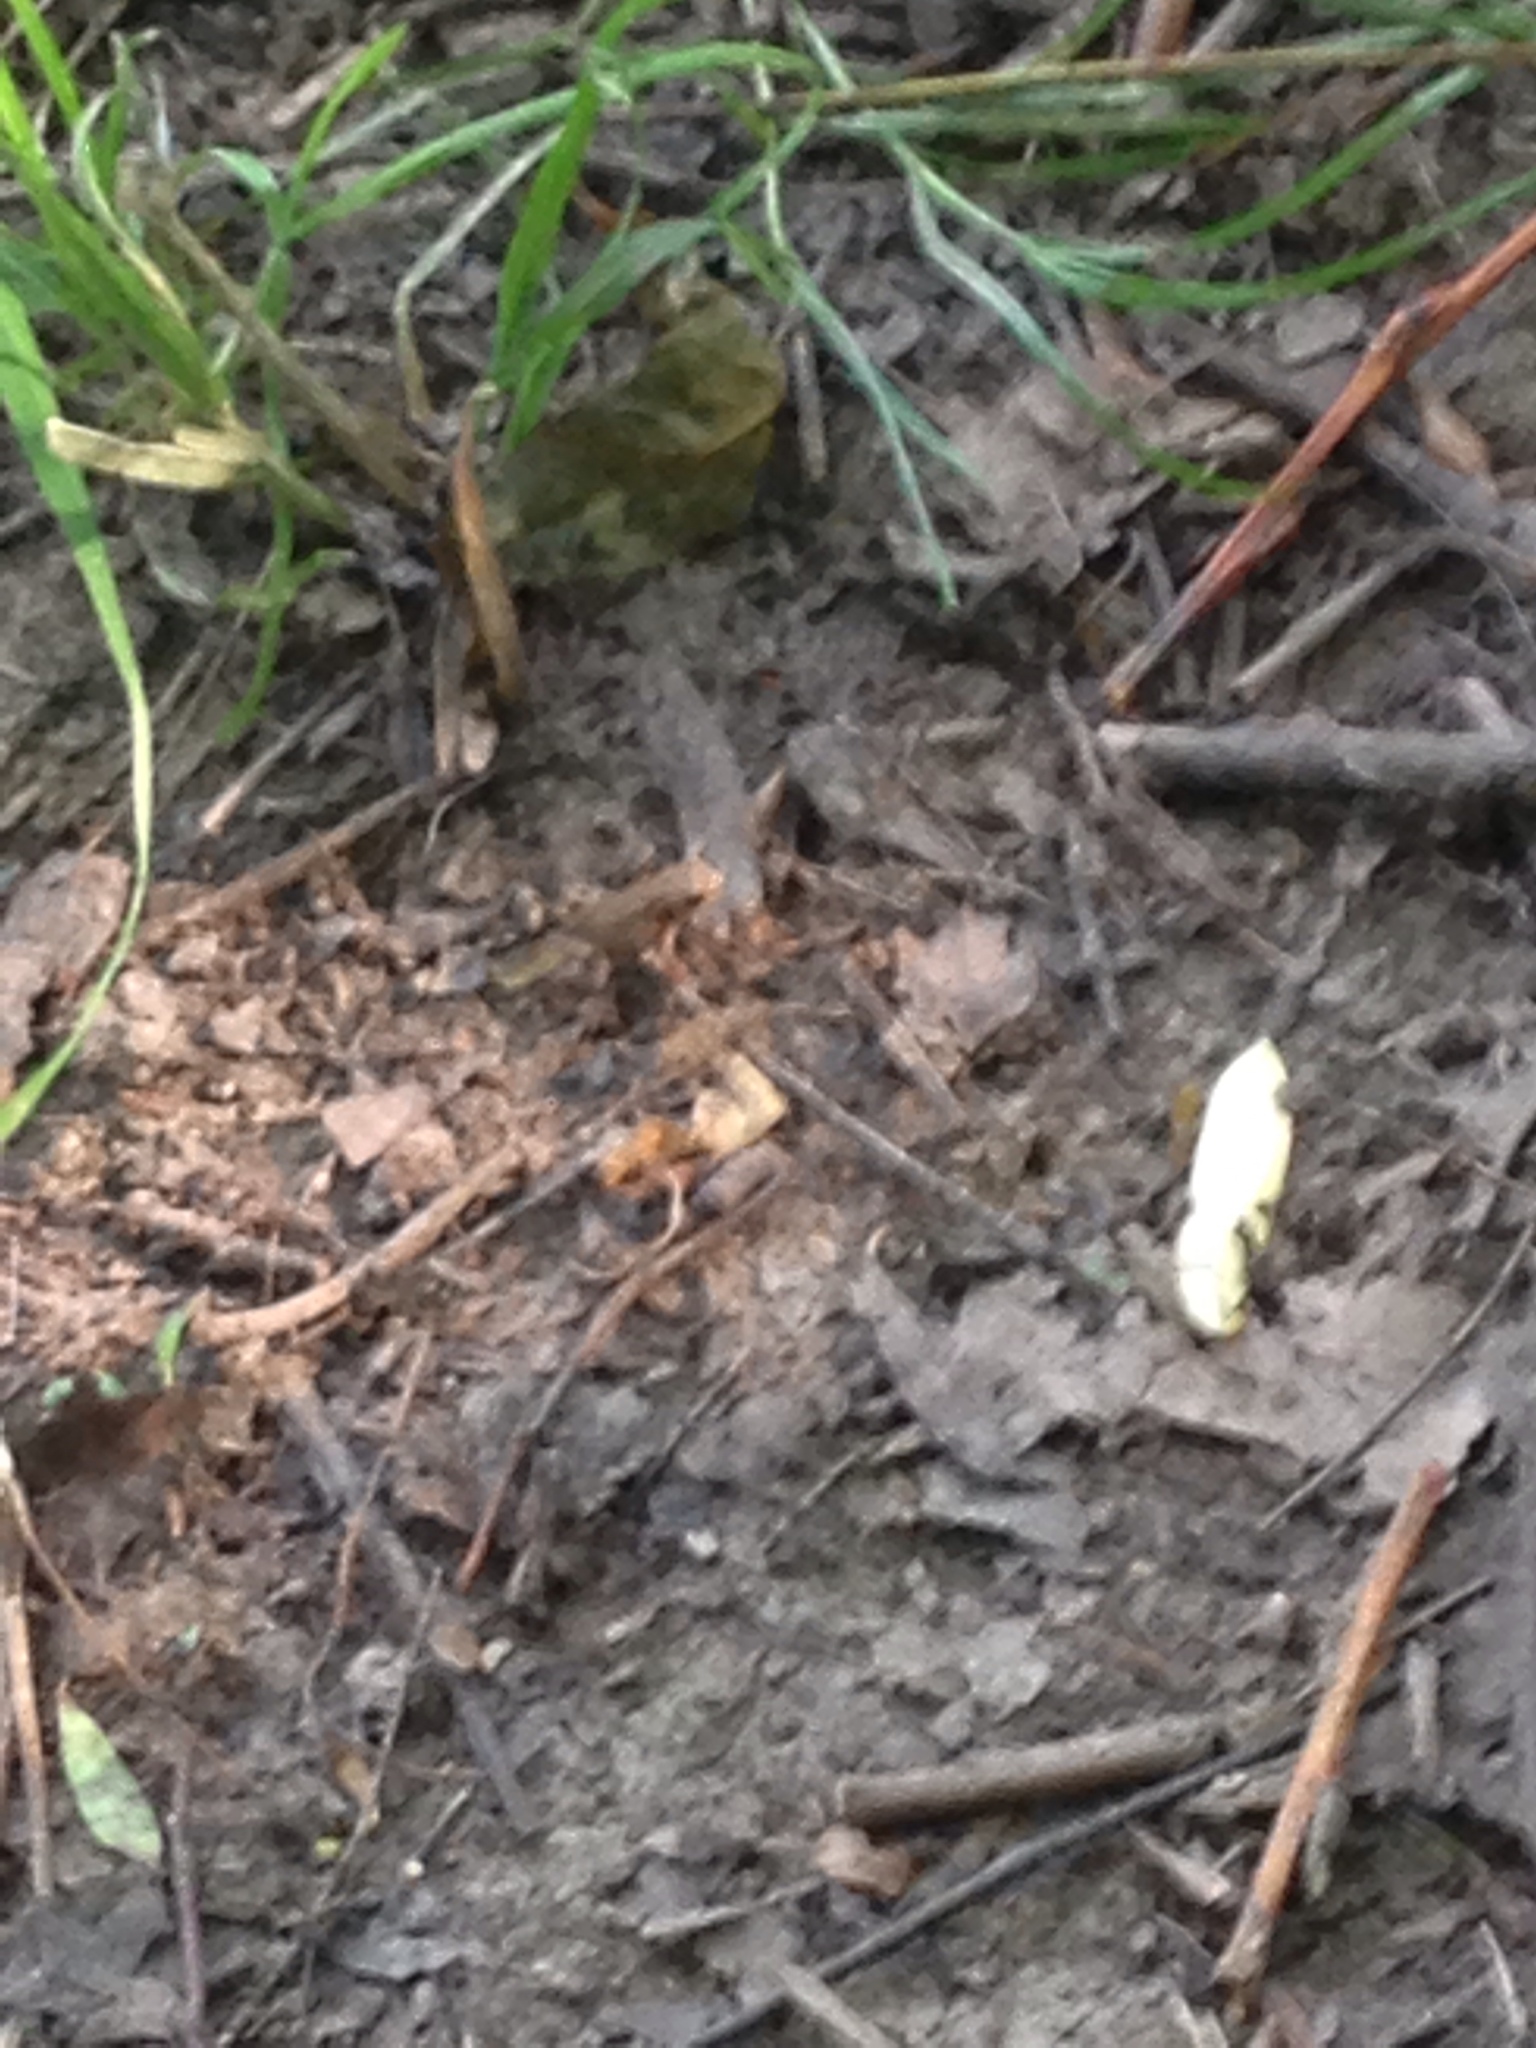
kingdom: Animalia
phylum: Chordata
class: Amphibia
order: Anura
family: Bufonidae
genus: Bufo
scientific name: Bufo bufo
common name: Common toad
